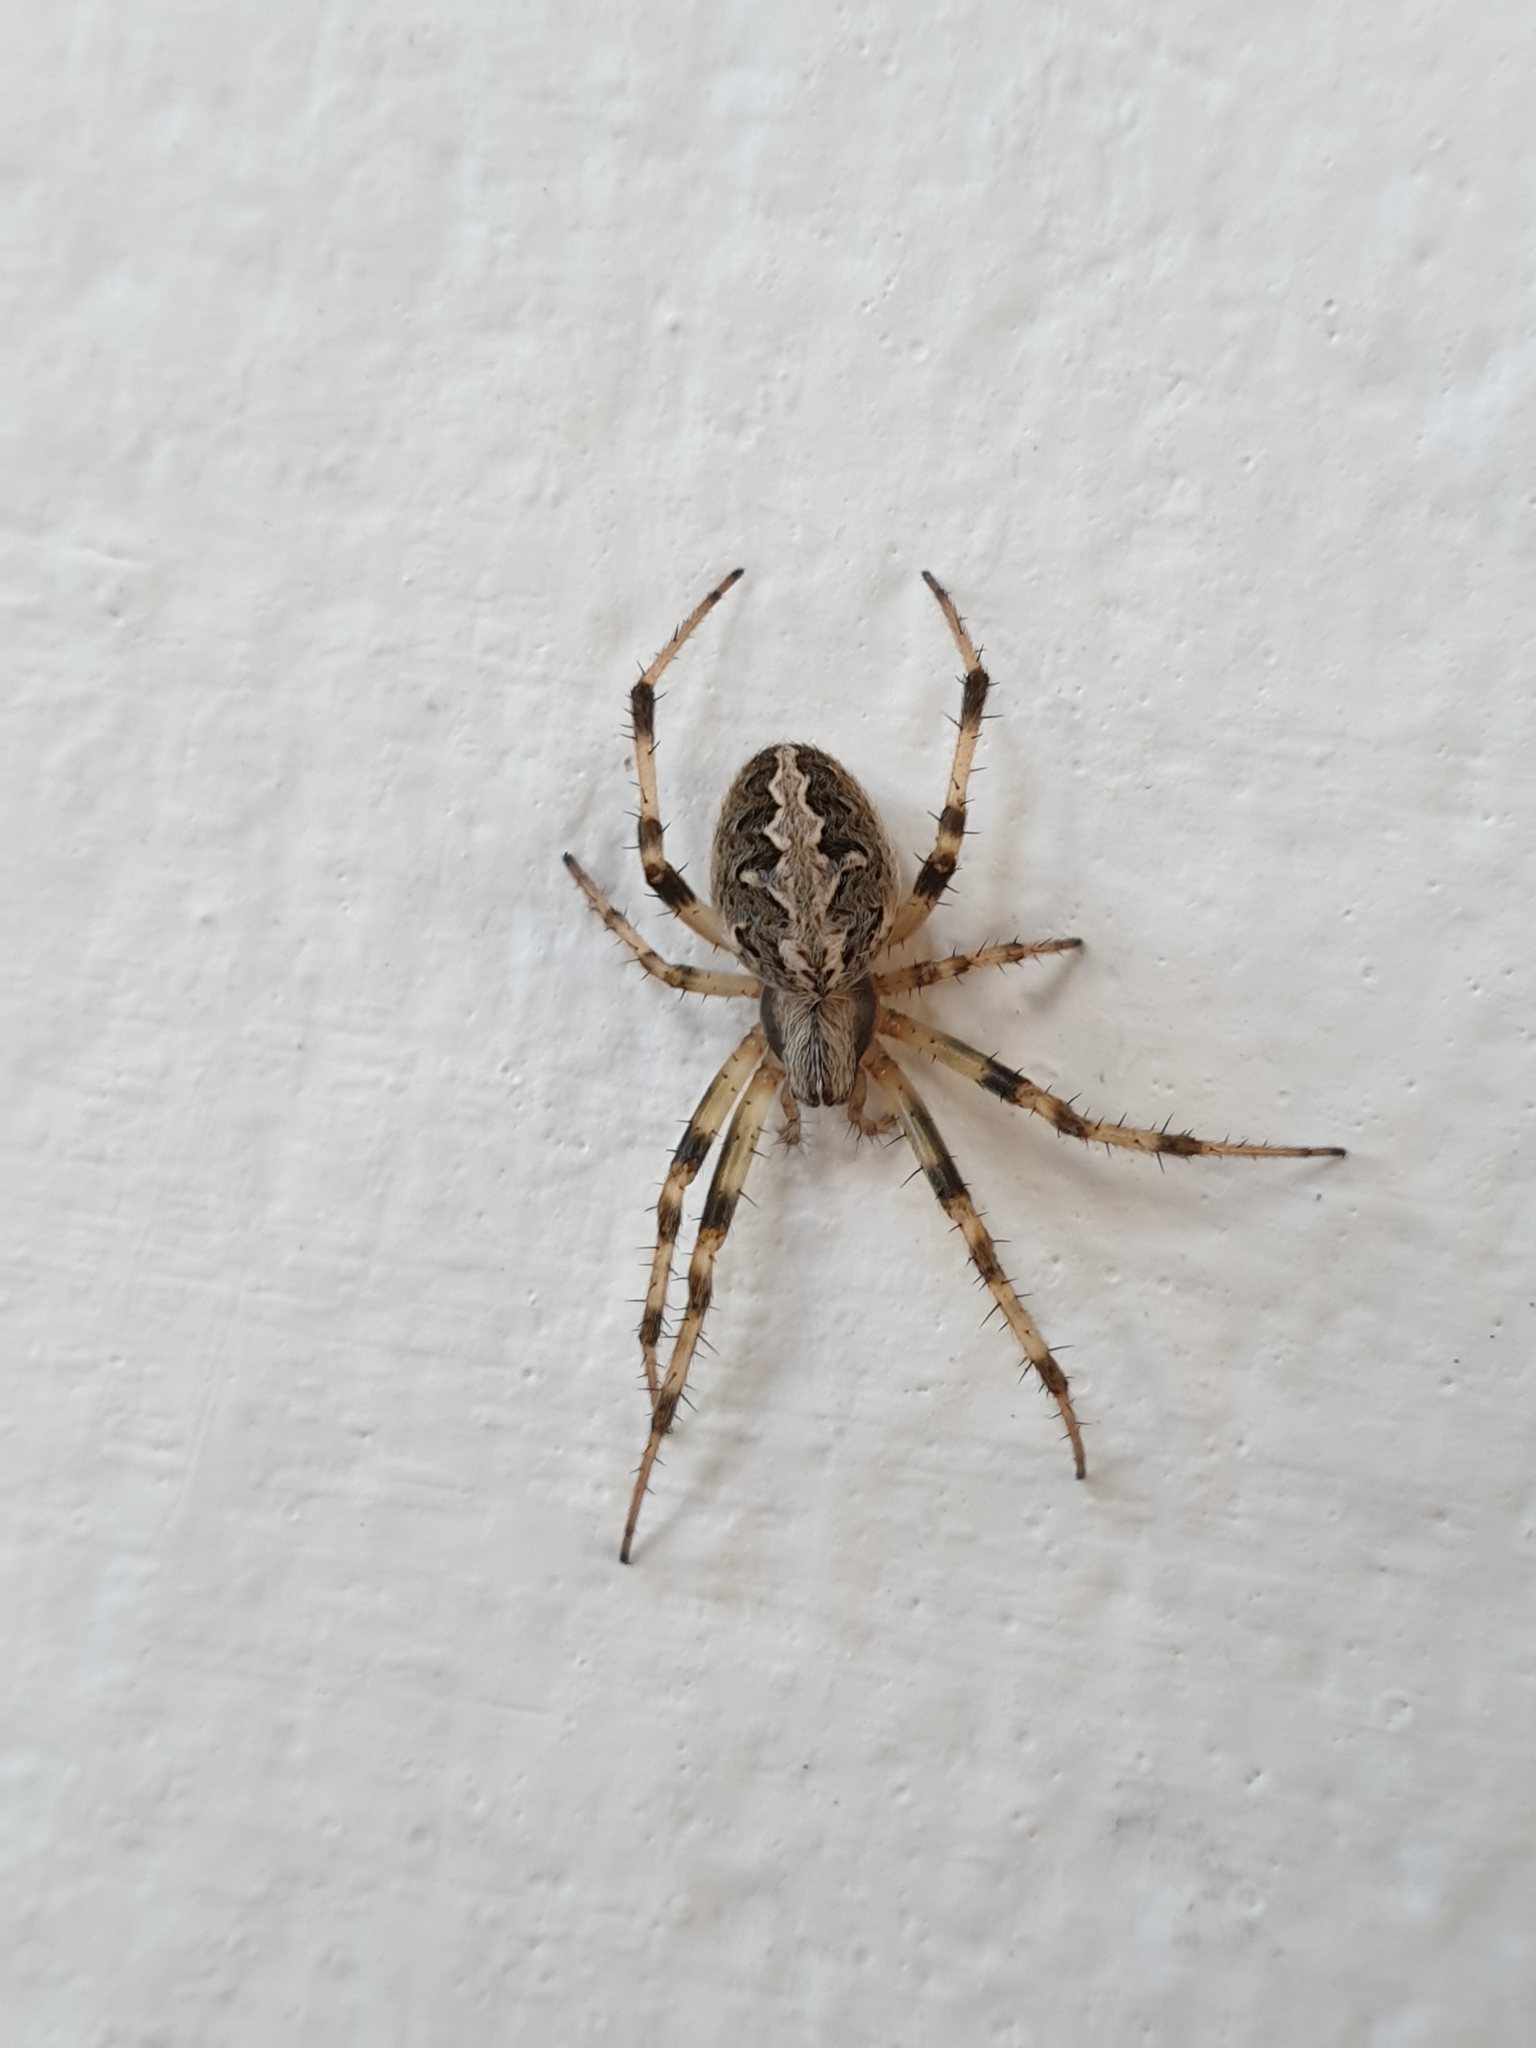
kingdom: Animalia
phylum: Arthropoda
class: Arachnida
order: Araneae
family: Araneidae
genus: Neoscona
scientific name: Neoscona theisi
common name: Spider
